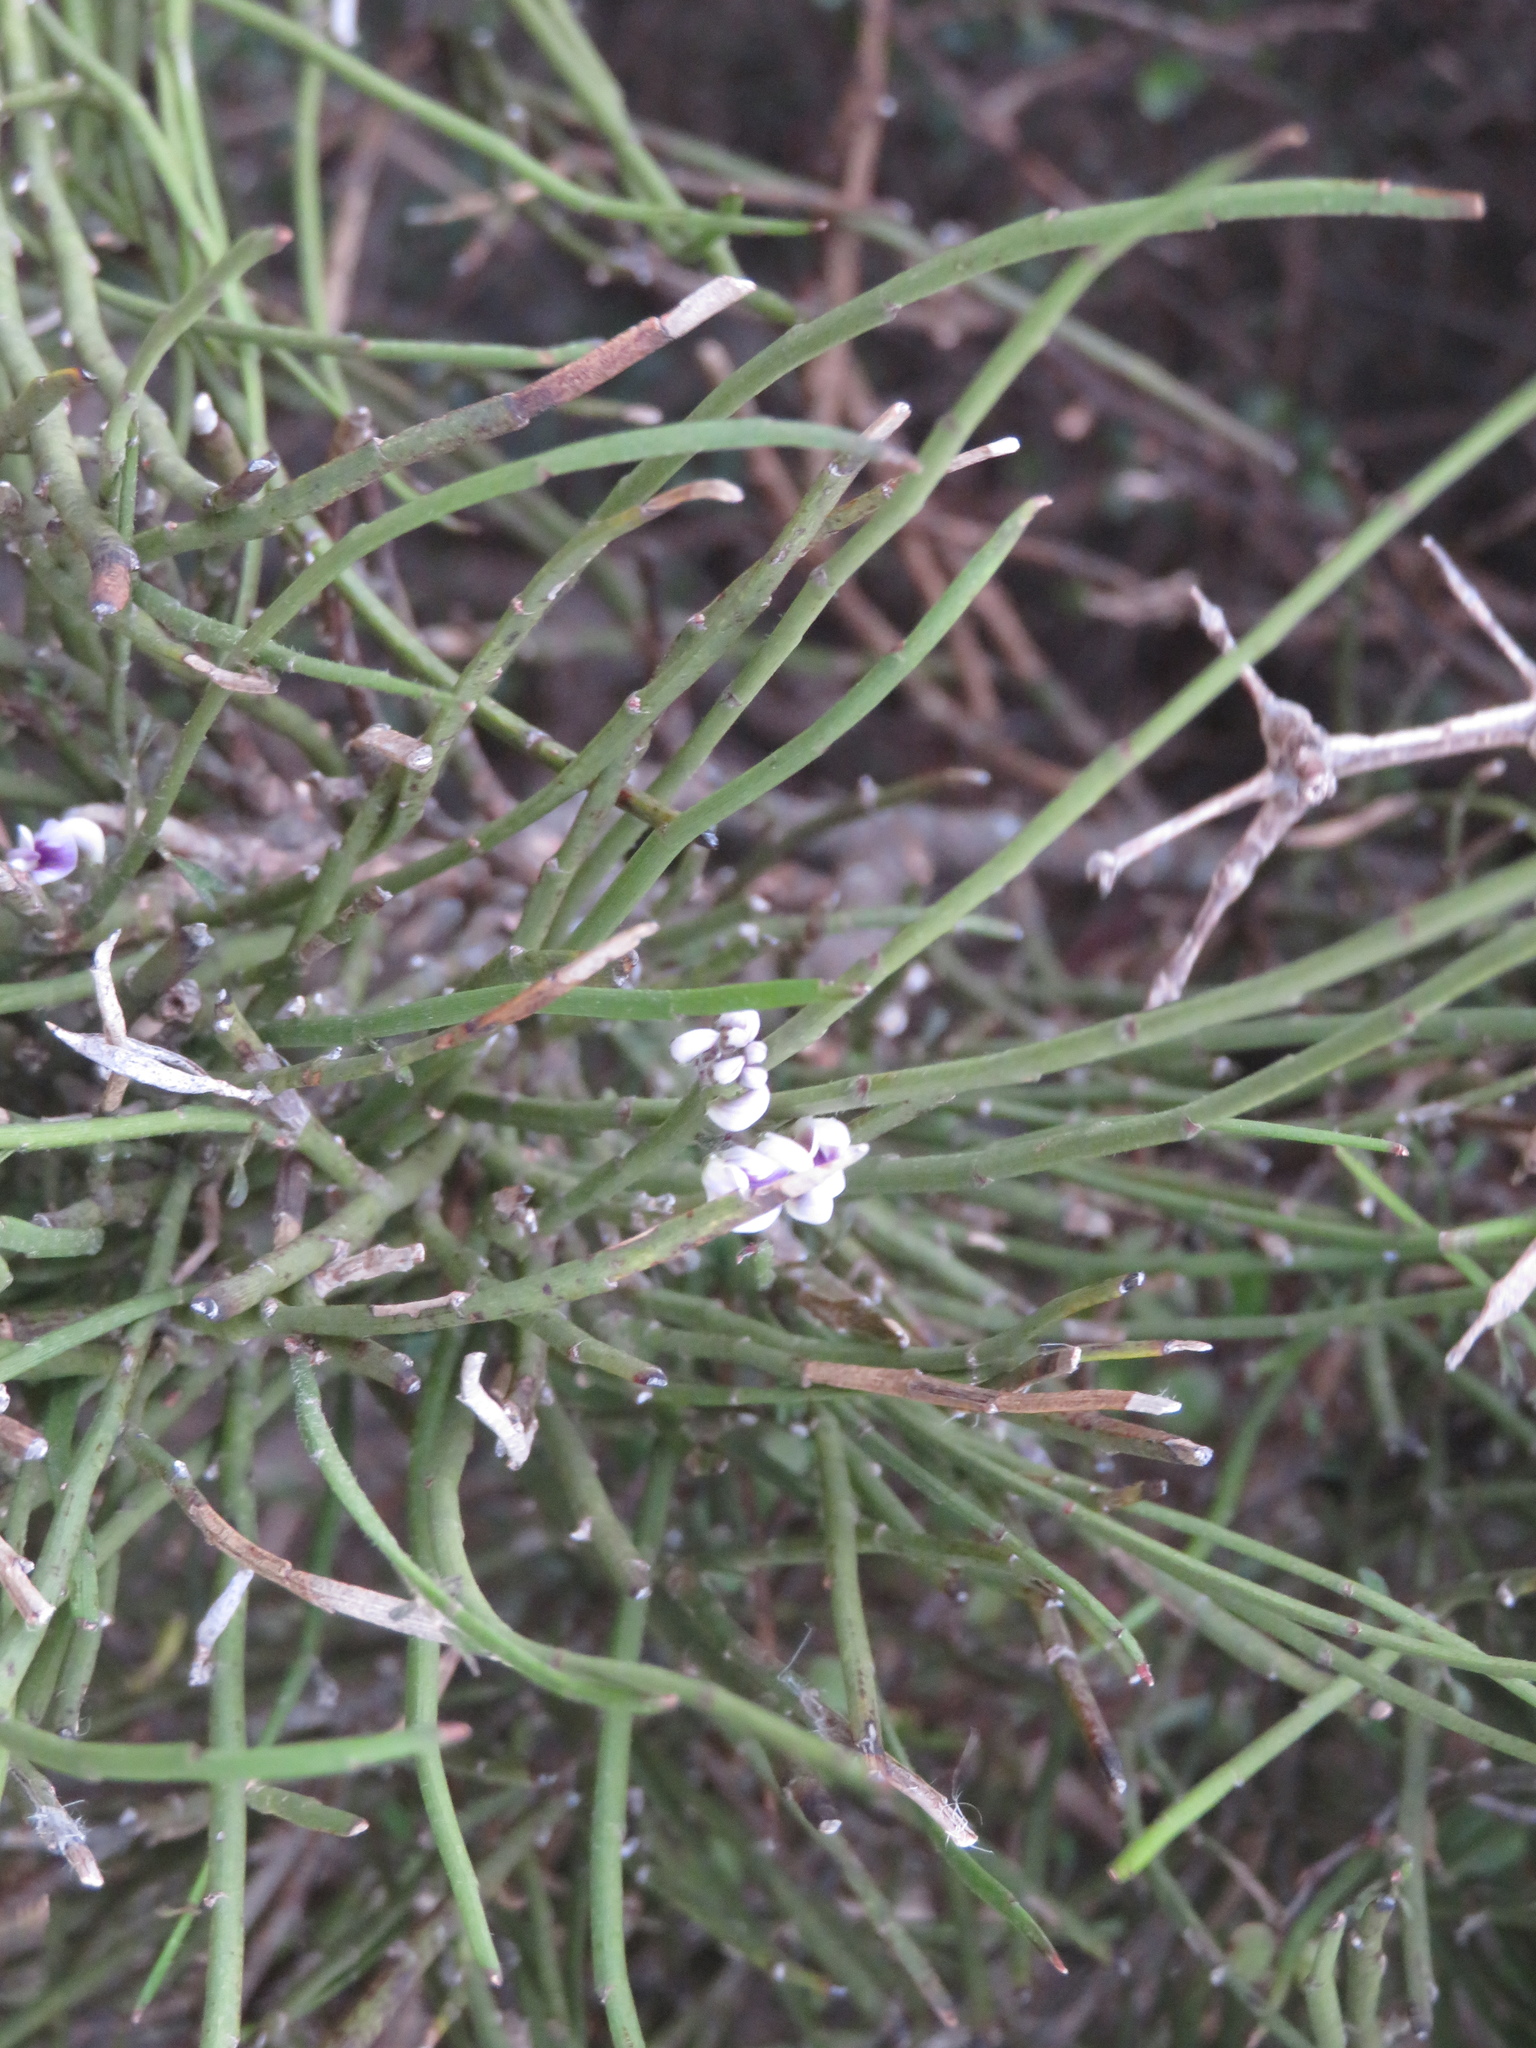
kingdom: Plantae
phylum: Tracheophyta
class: Magnoliopsida
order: Fabales
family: Fabaceae
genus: Carmichaelia
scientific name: Carmichaelia australis
